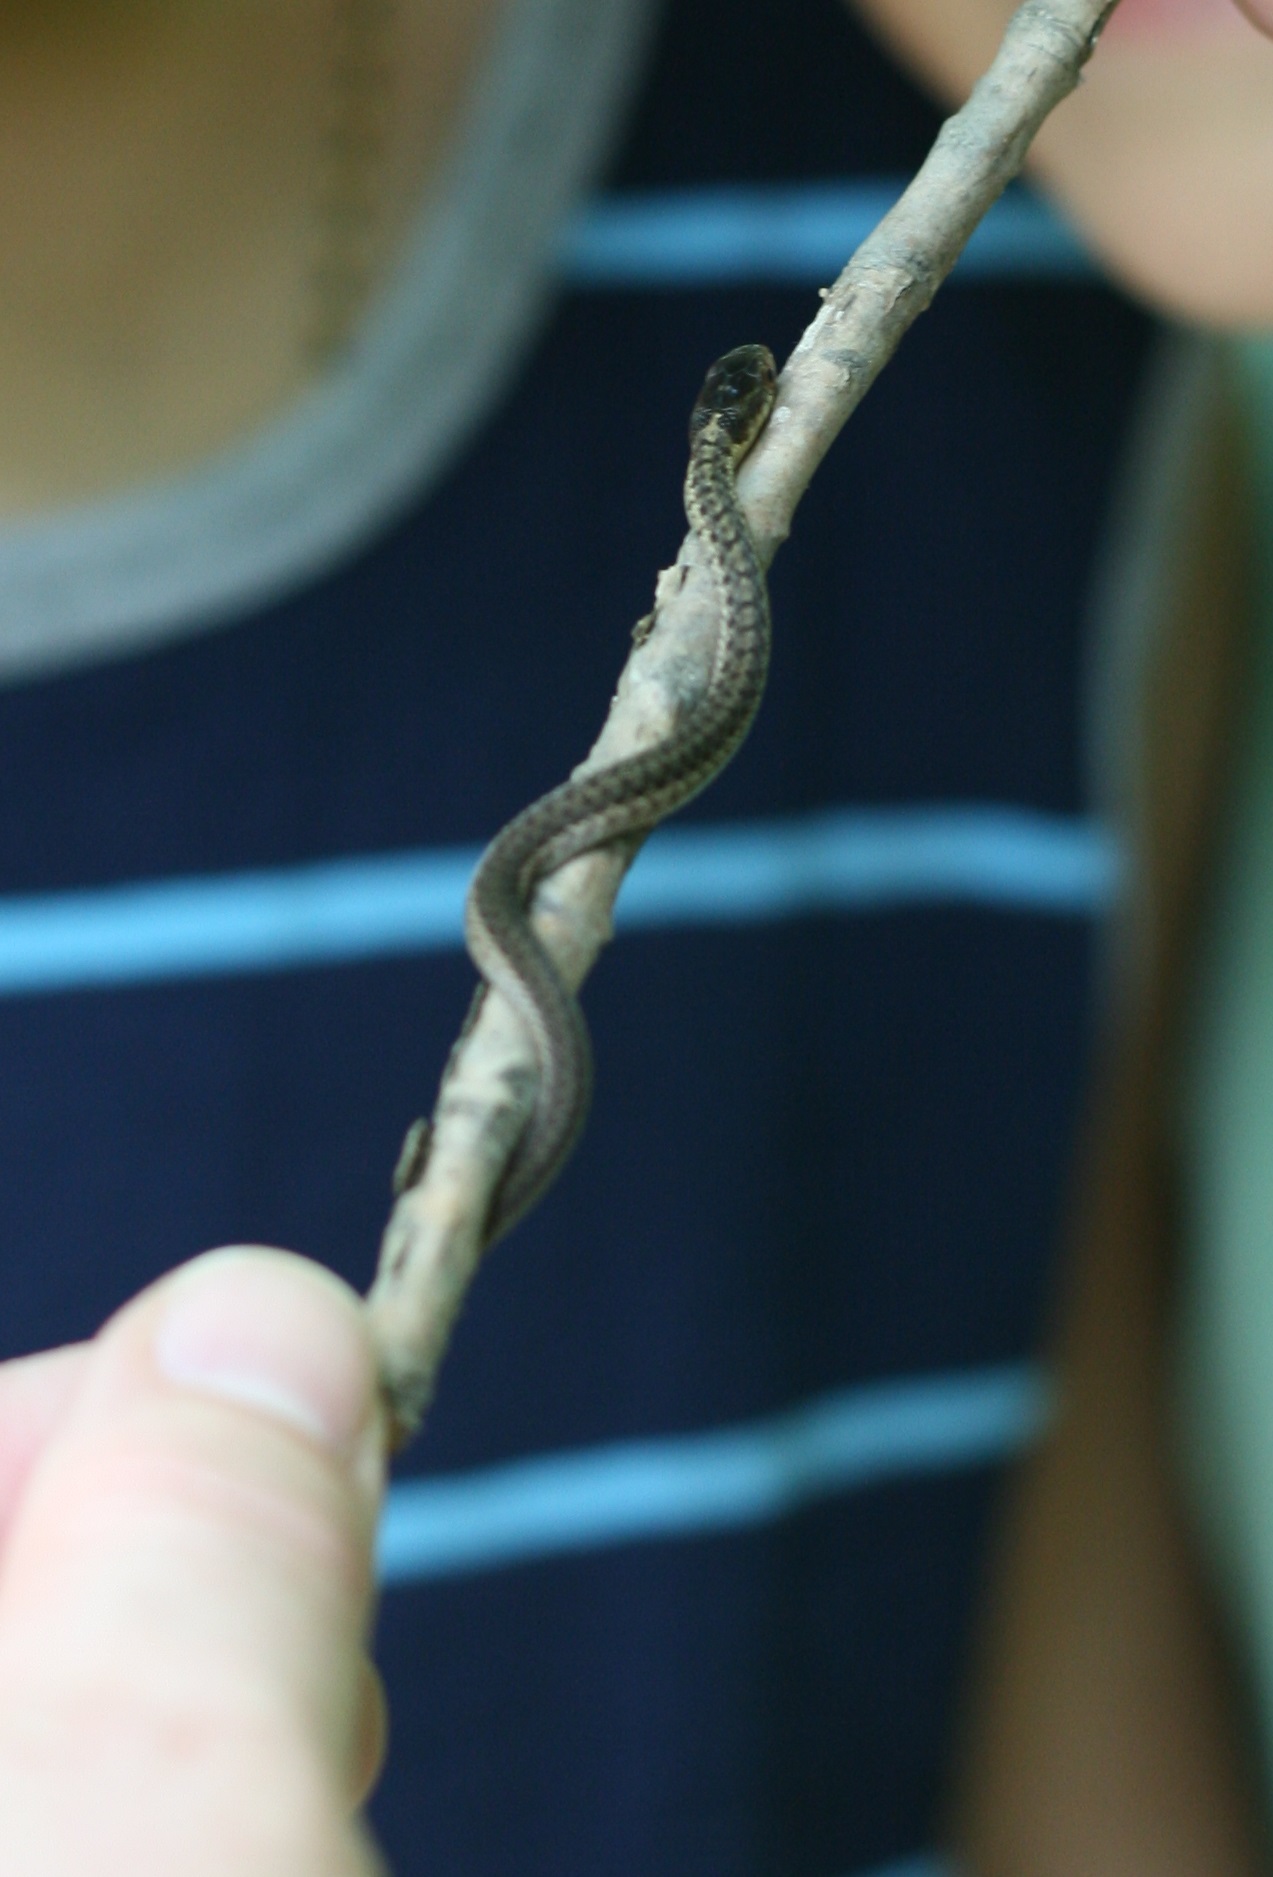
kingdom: Animalia
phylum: Chordata
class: Squamata
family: Colubridae
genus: Thamnophis
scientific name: Thamnophis sirtalis
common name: Common garter snake
